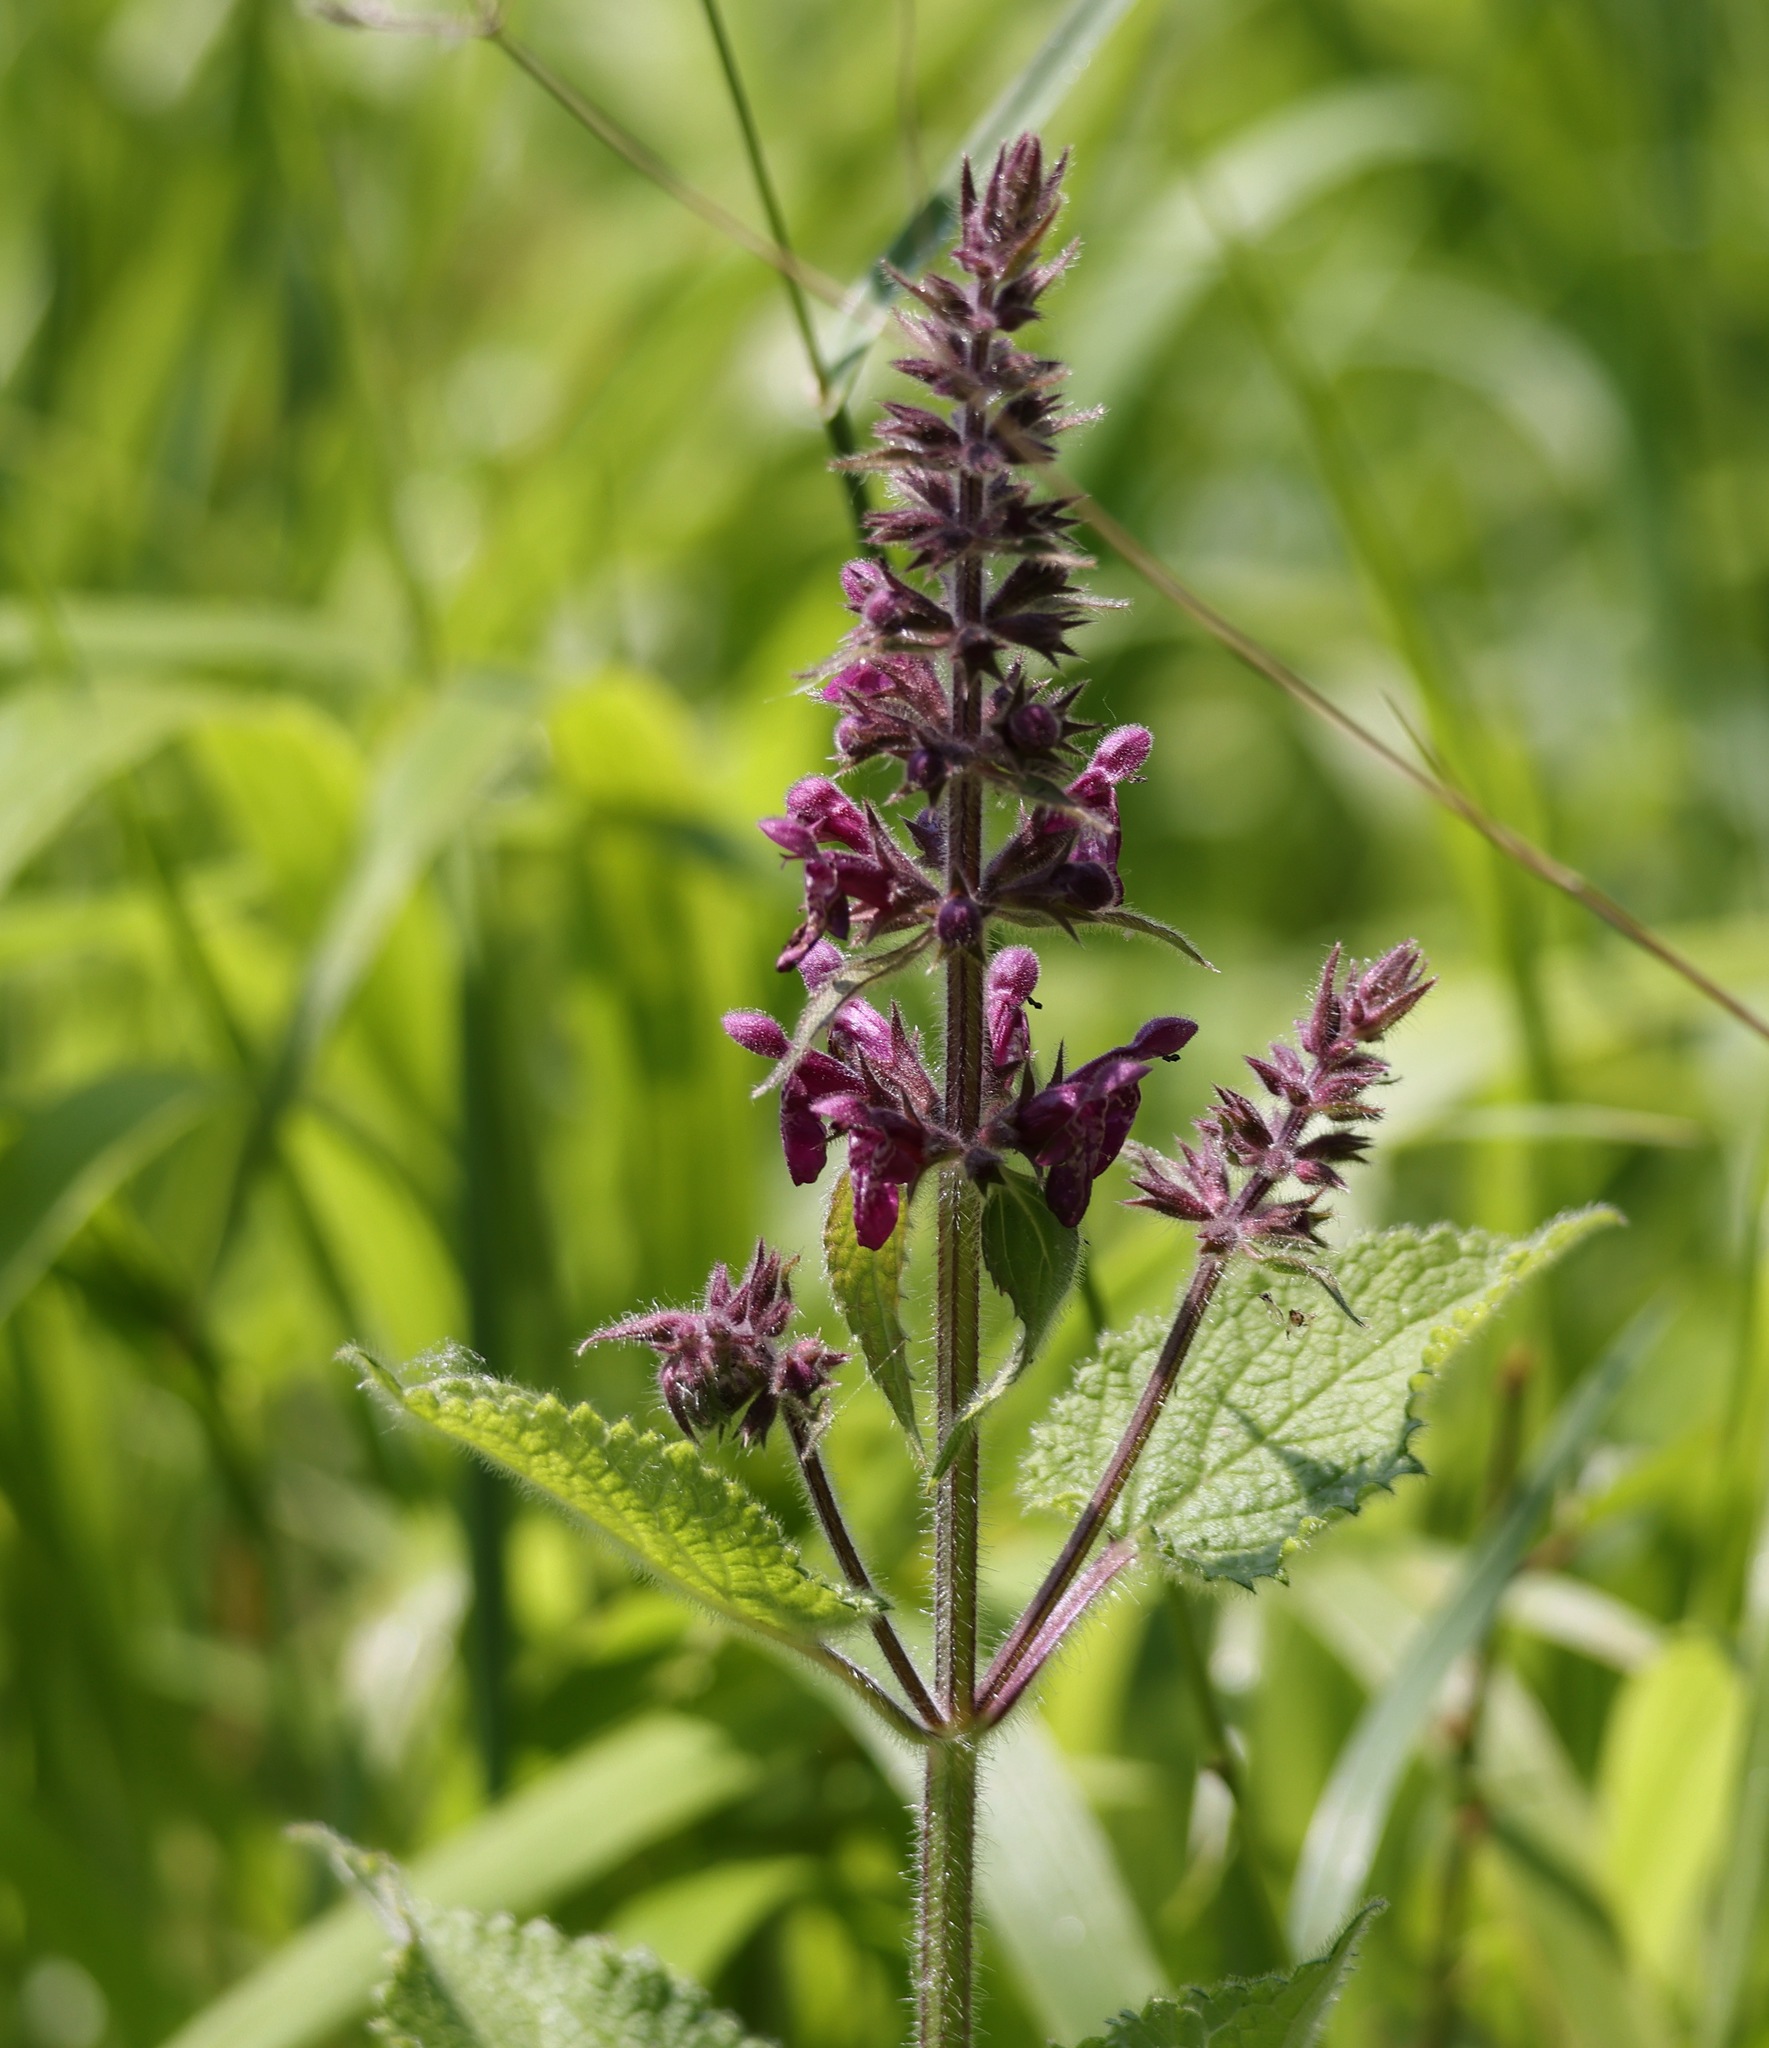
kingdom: Plantae
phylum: Tracheophyta
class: Magnoliopsida
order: Lamiales
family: Lamiaceae
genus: Stachys
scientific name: Stachys sylvatica
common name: Hedge woundwort
